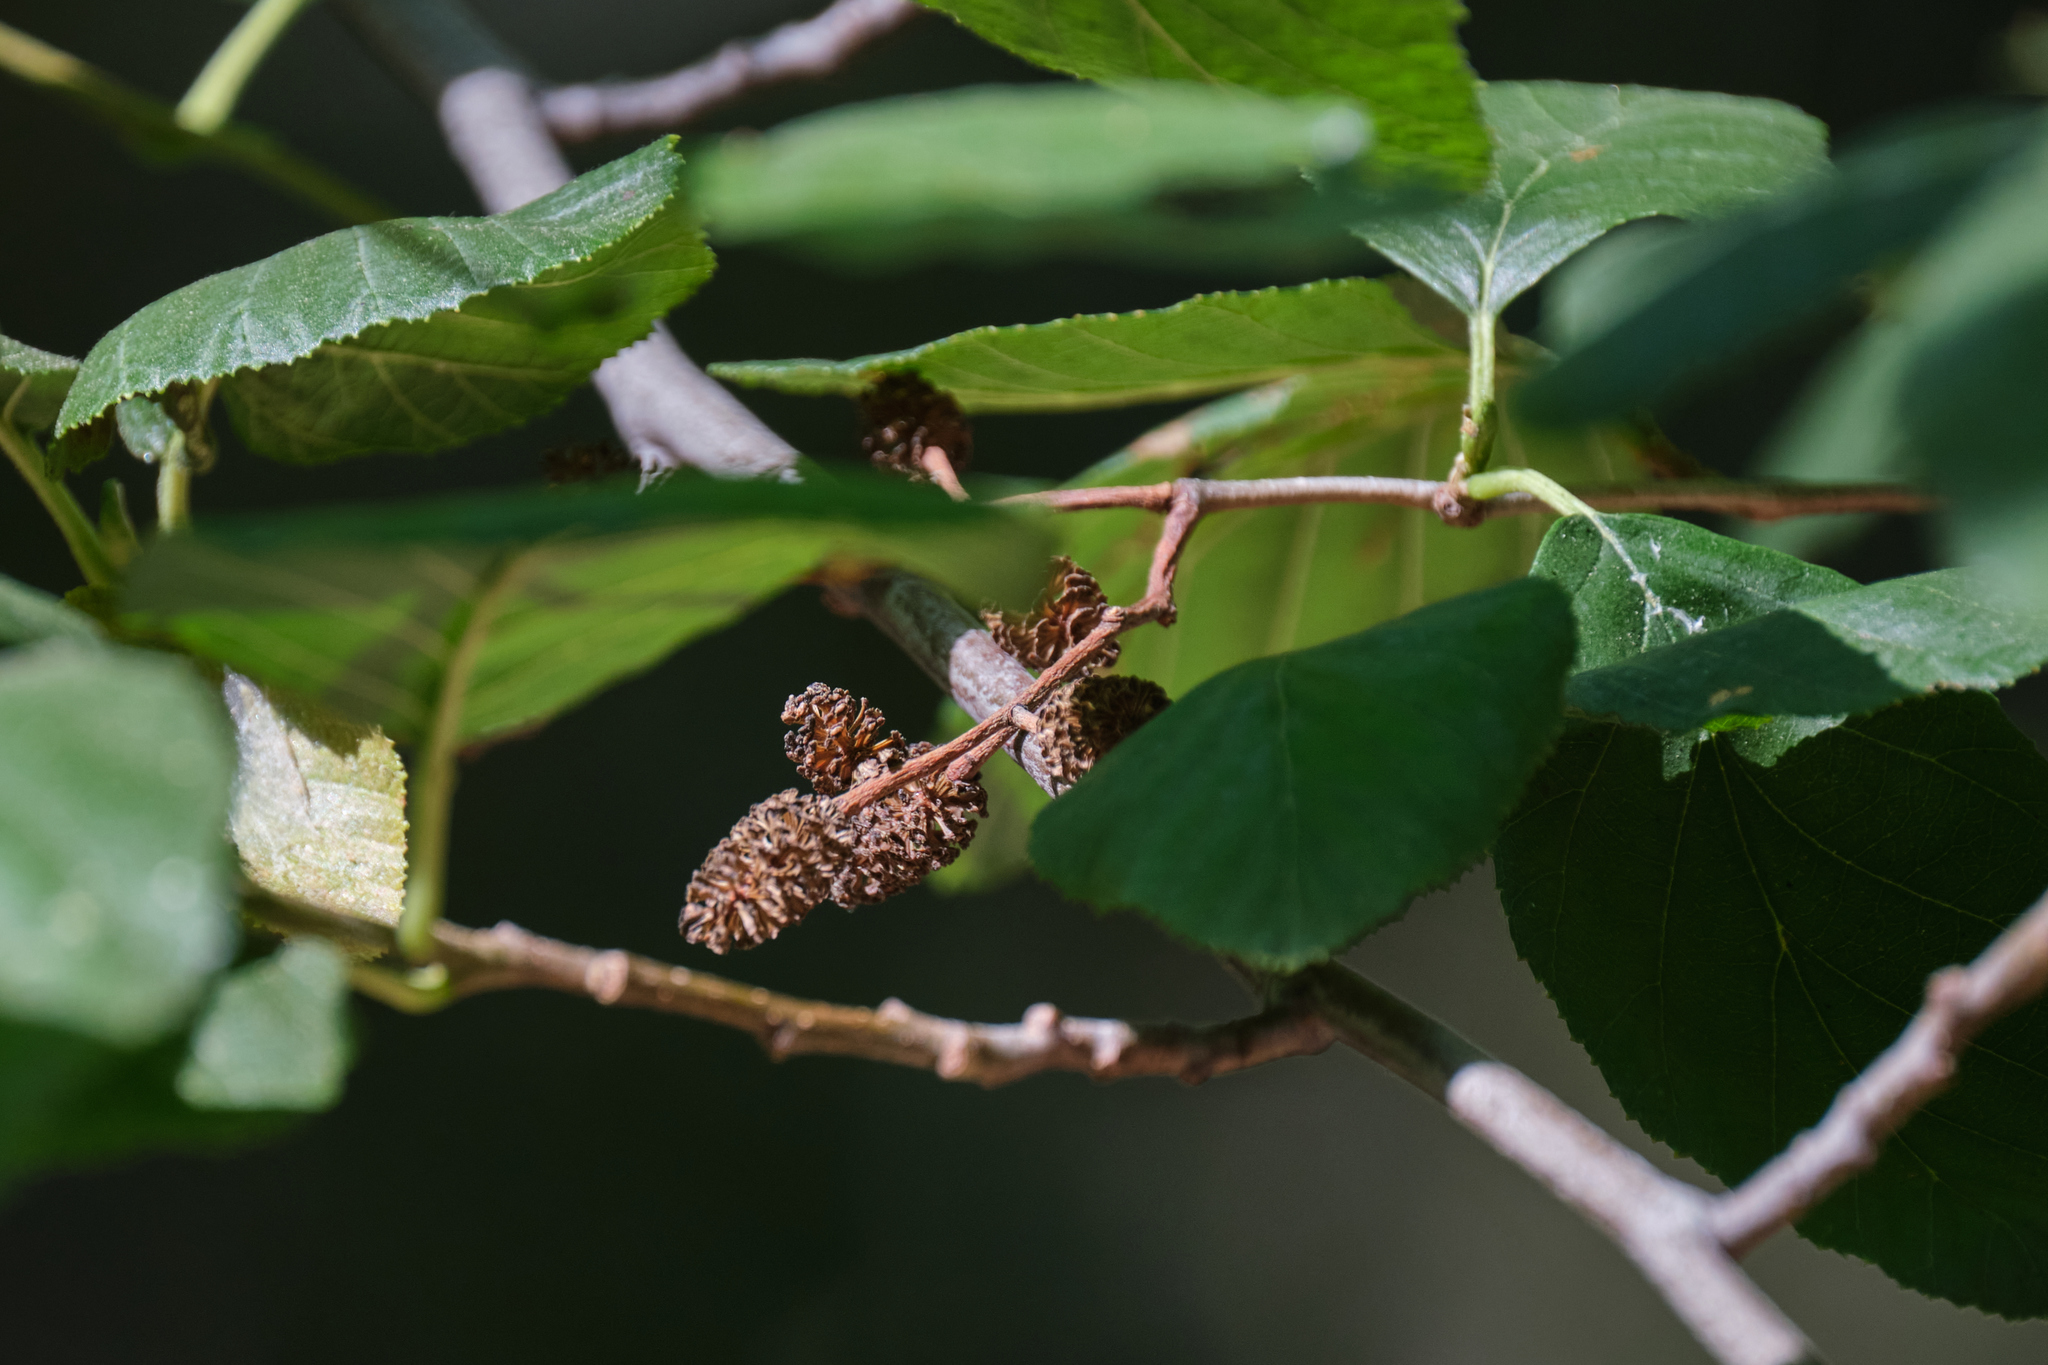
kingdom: Plantae
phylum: Tracheophyta
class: Magnoliopsida
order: Fagales
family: Betulaceae
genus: Alnus
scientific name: Alnus rhombifolia
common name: California alder
